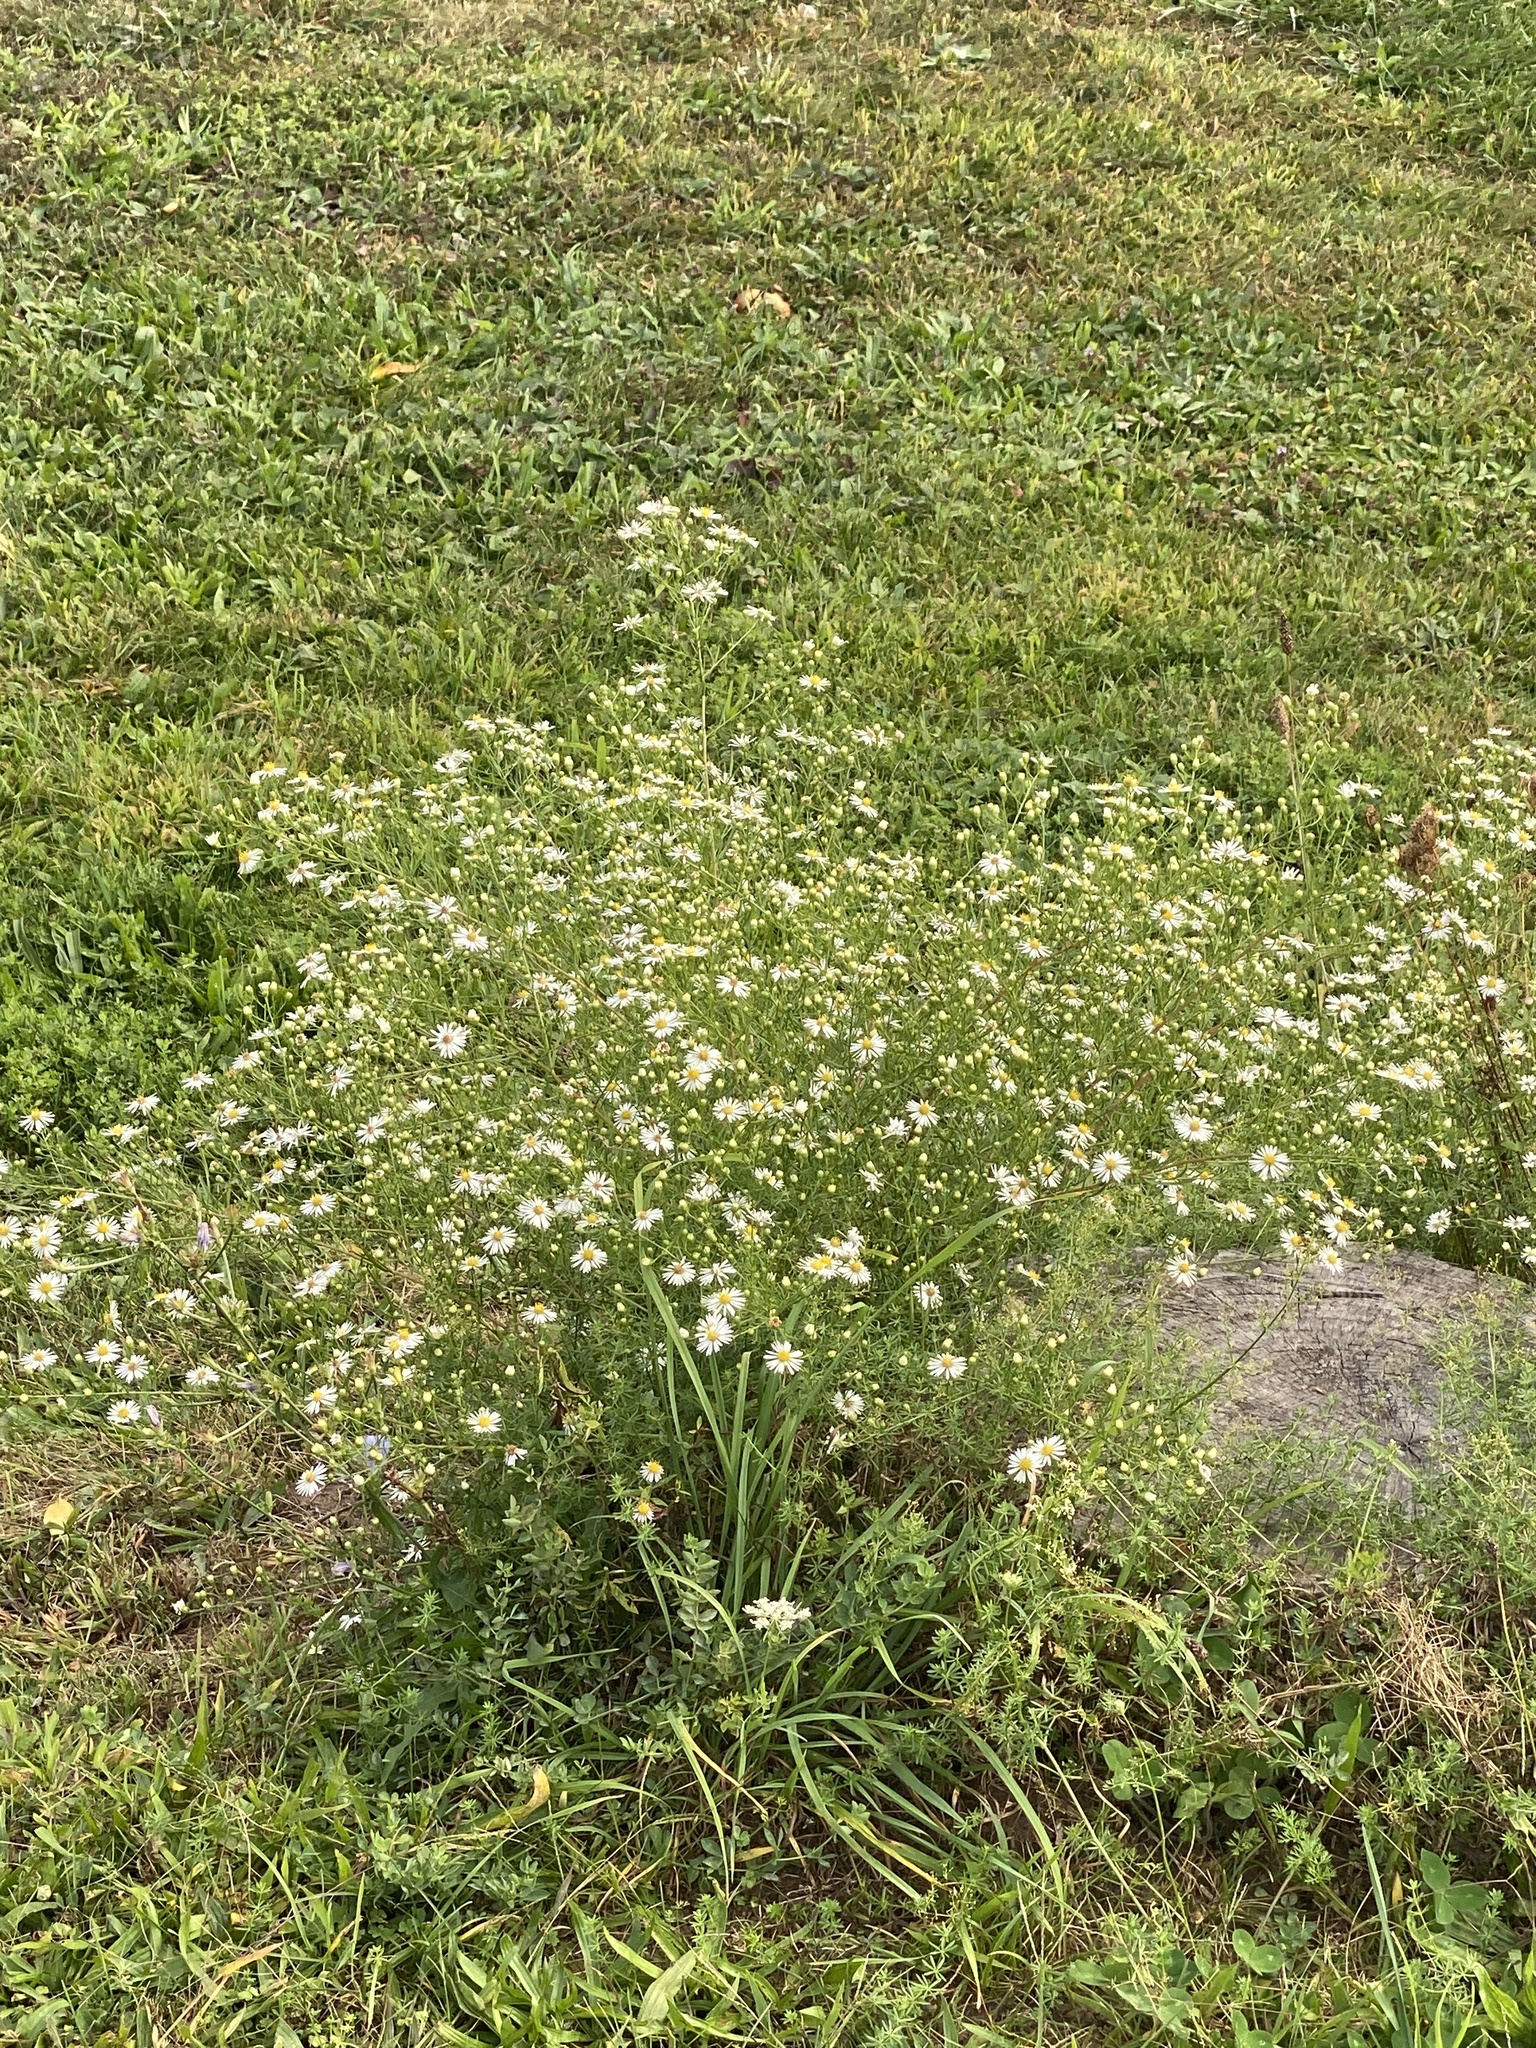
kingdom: Plantae
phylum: Tracheophyta
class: Magnoliopsida
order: Asterales
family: Asteraceae
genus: Symphyotrichum
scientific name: Symphyotrichum pilosum
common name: Awl aster
